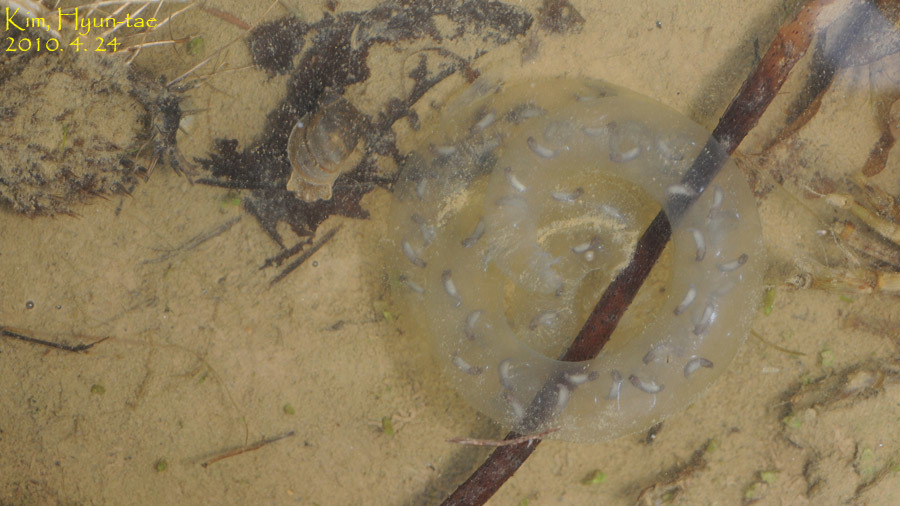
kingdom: Animalia
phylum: Chordata
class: Amphibia
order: Caudata
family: Hynobiidae
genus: Hynobius
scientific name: Hynobius leechii
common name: Gensan salamander
